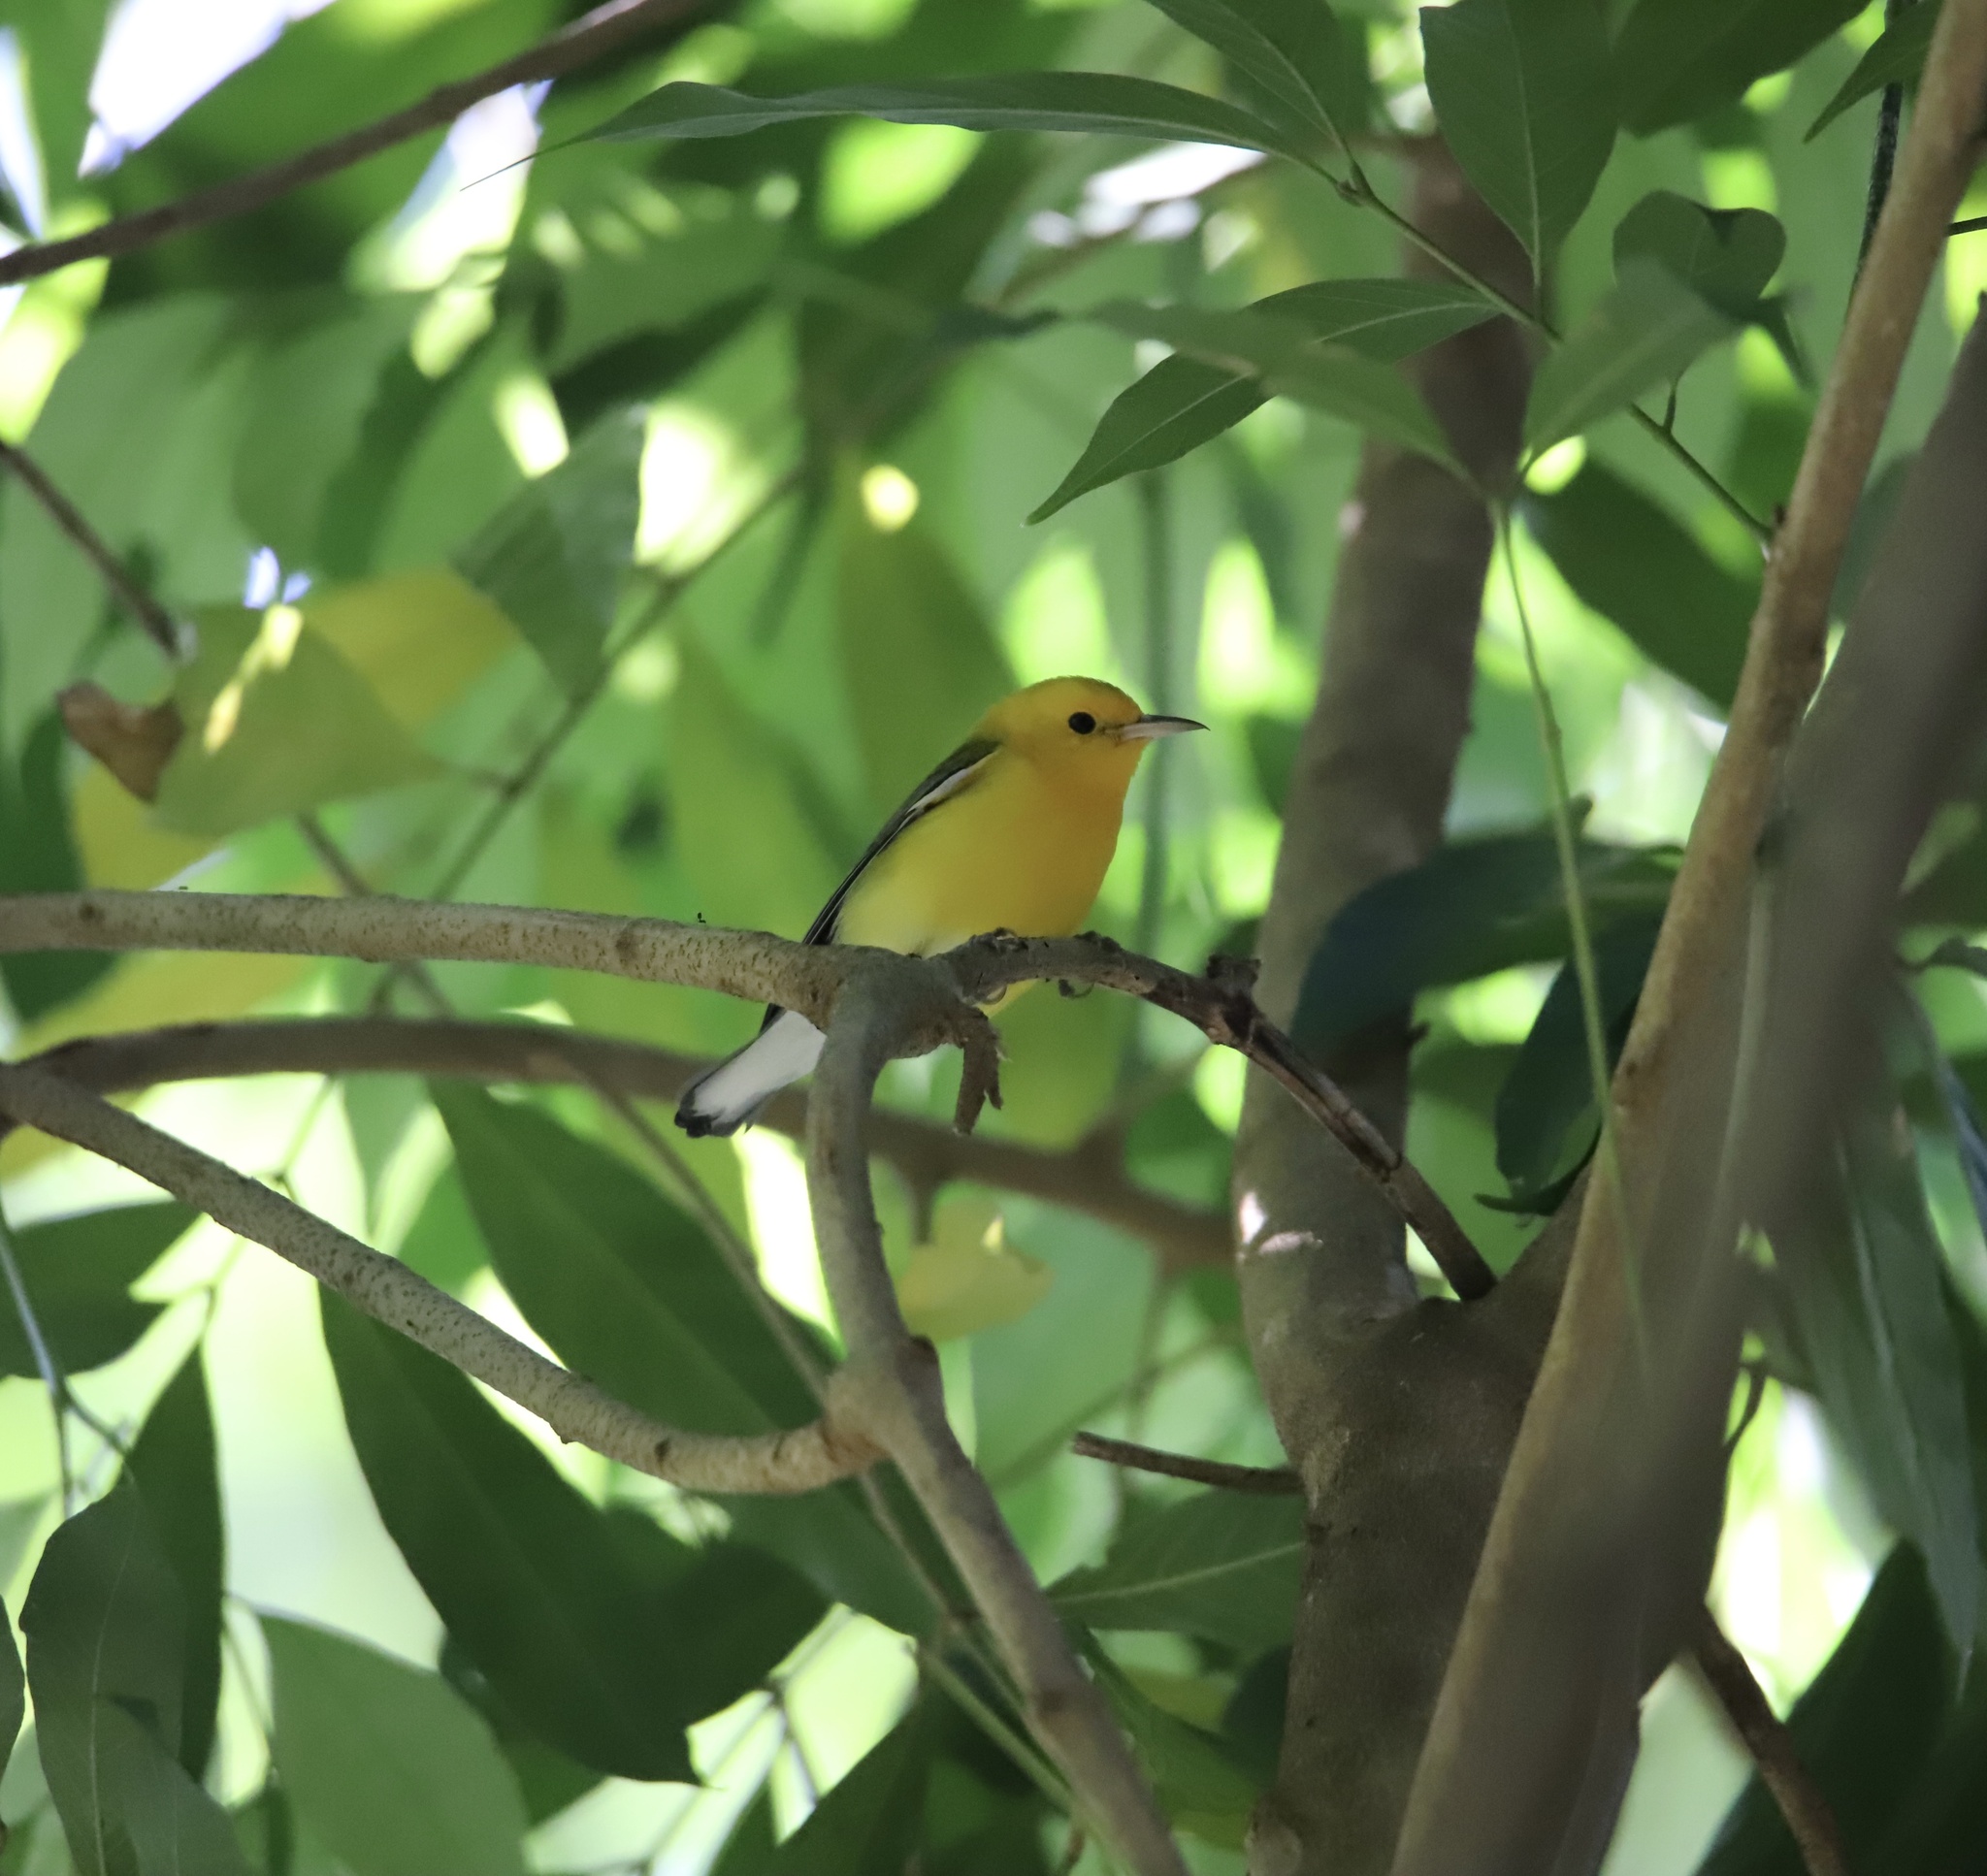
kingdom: Animalia
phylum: Chordata
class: Aves
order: Passeriformes
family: Parulidae
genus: Protonotaria
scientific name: Protonotaria citrea
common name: Prothonotary warbler
